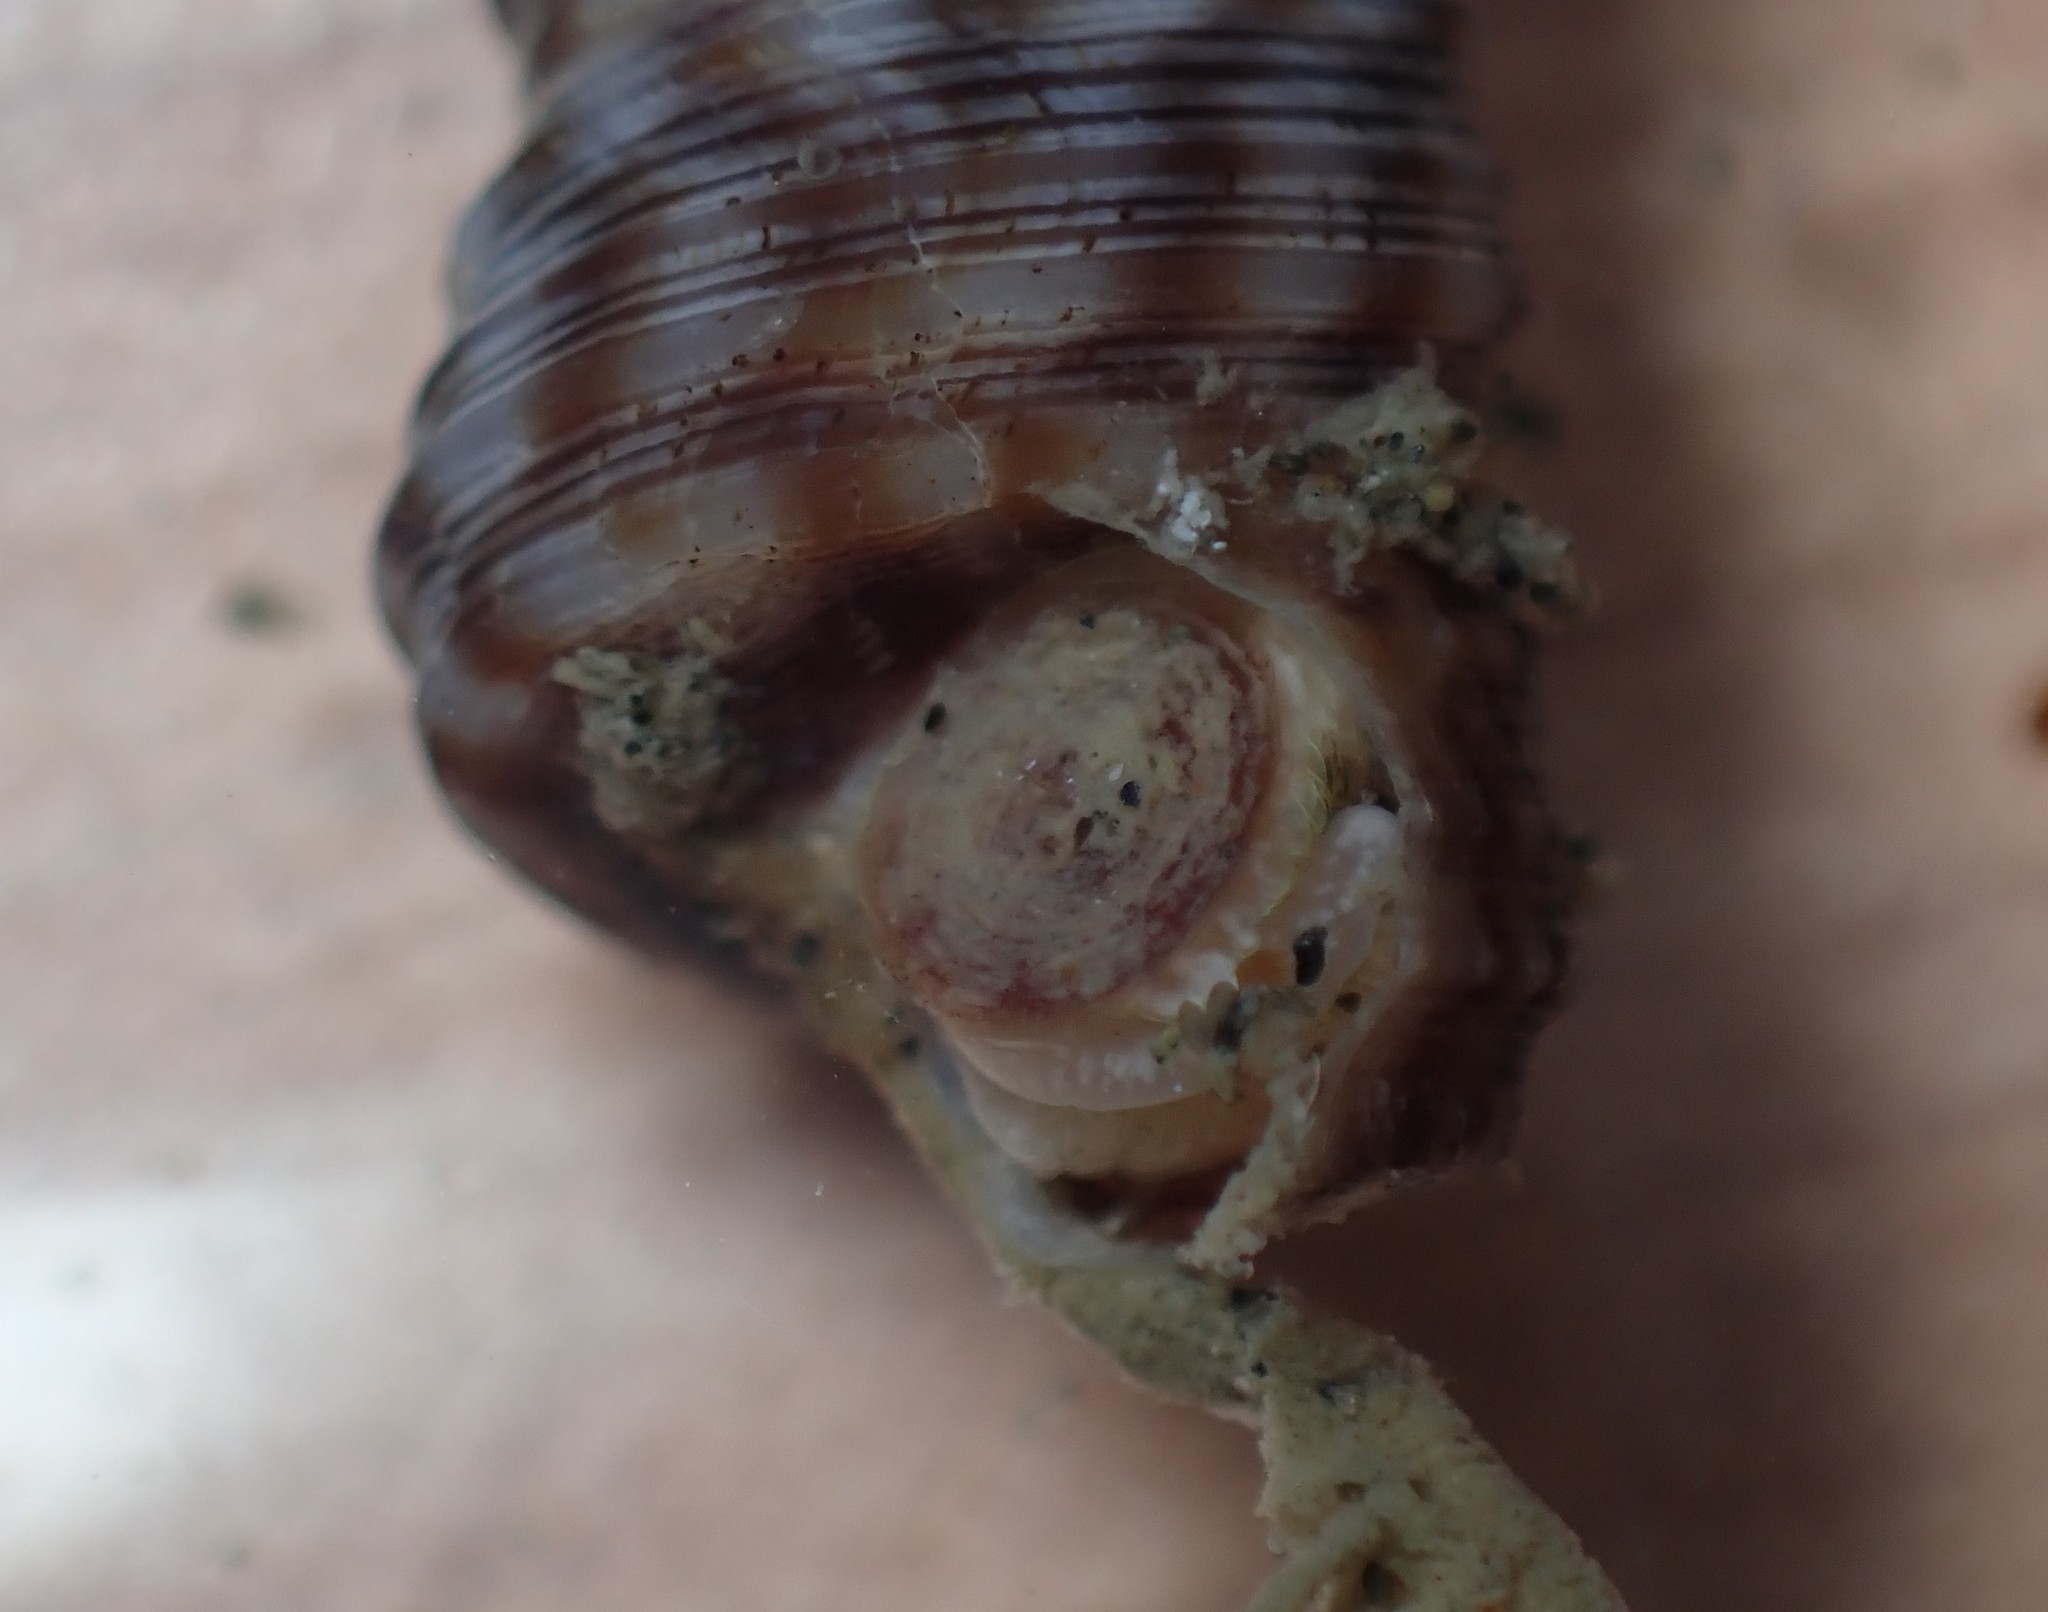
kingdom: Animalia
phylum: Mollusca
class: Gastropoda
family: Turritellidae
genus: Stiracolpus
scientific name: Stiracolpus pagoda
